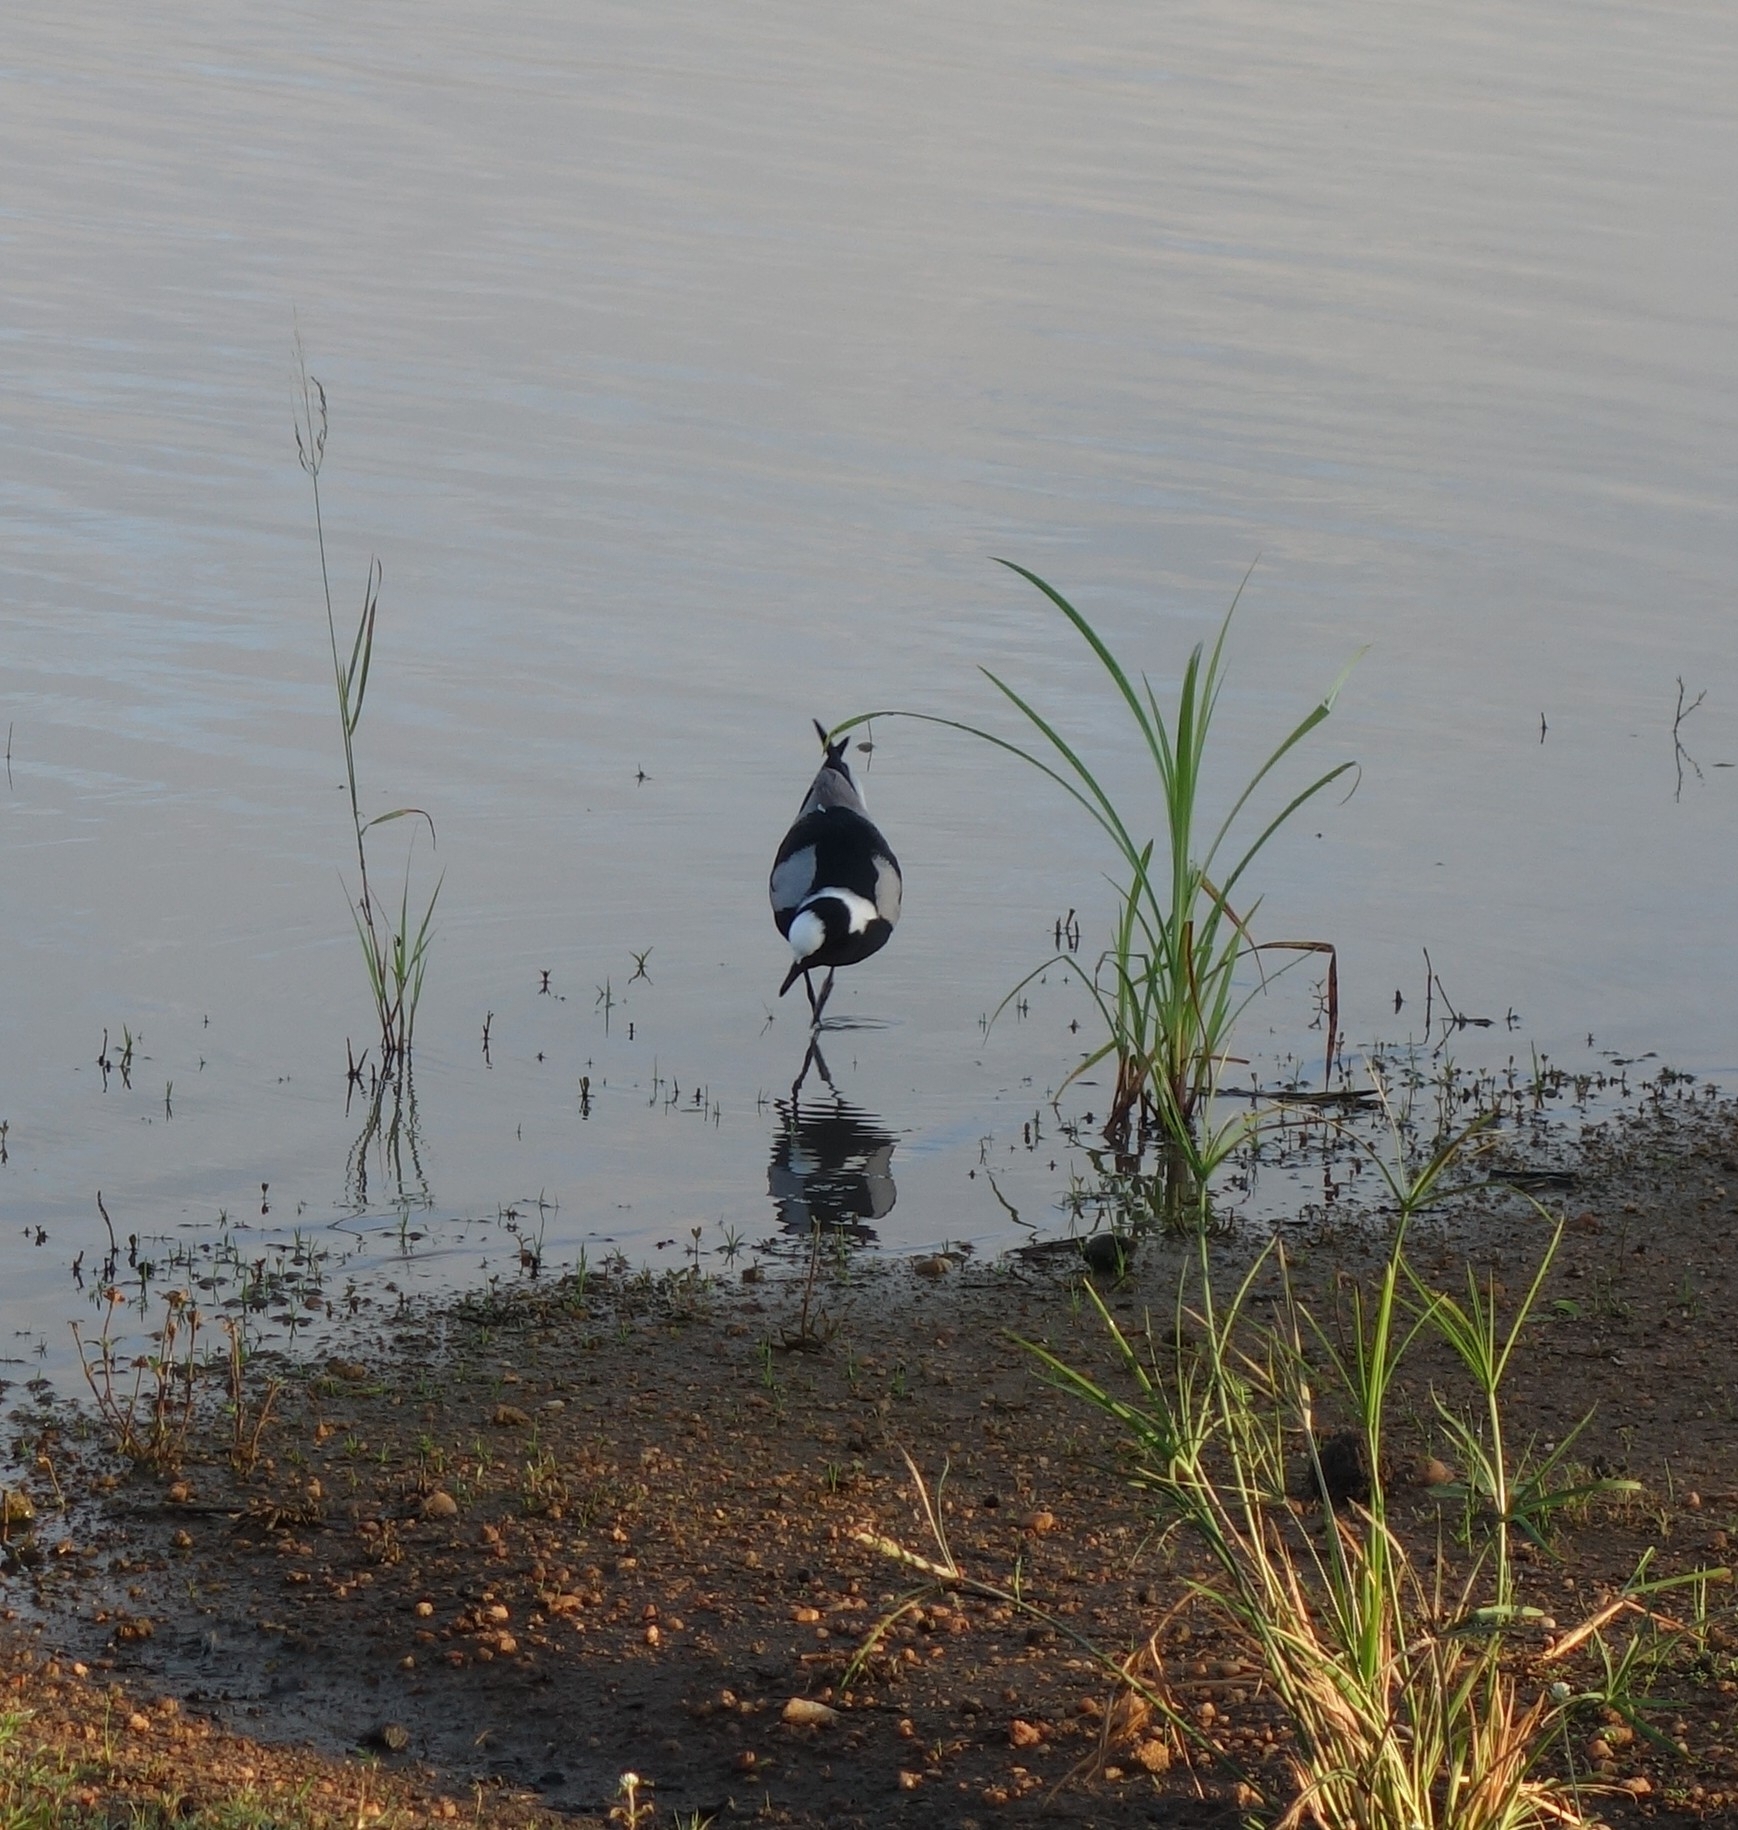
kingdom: Animalia
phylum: Chordata
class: Aves
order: Charadriiformes
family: Charadriidae
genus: Vanellus
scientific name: Vanellus armatus
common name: Blacksmith lapwing
